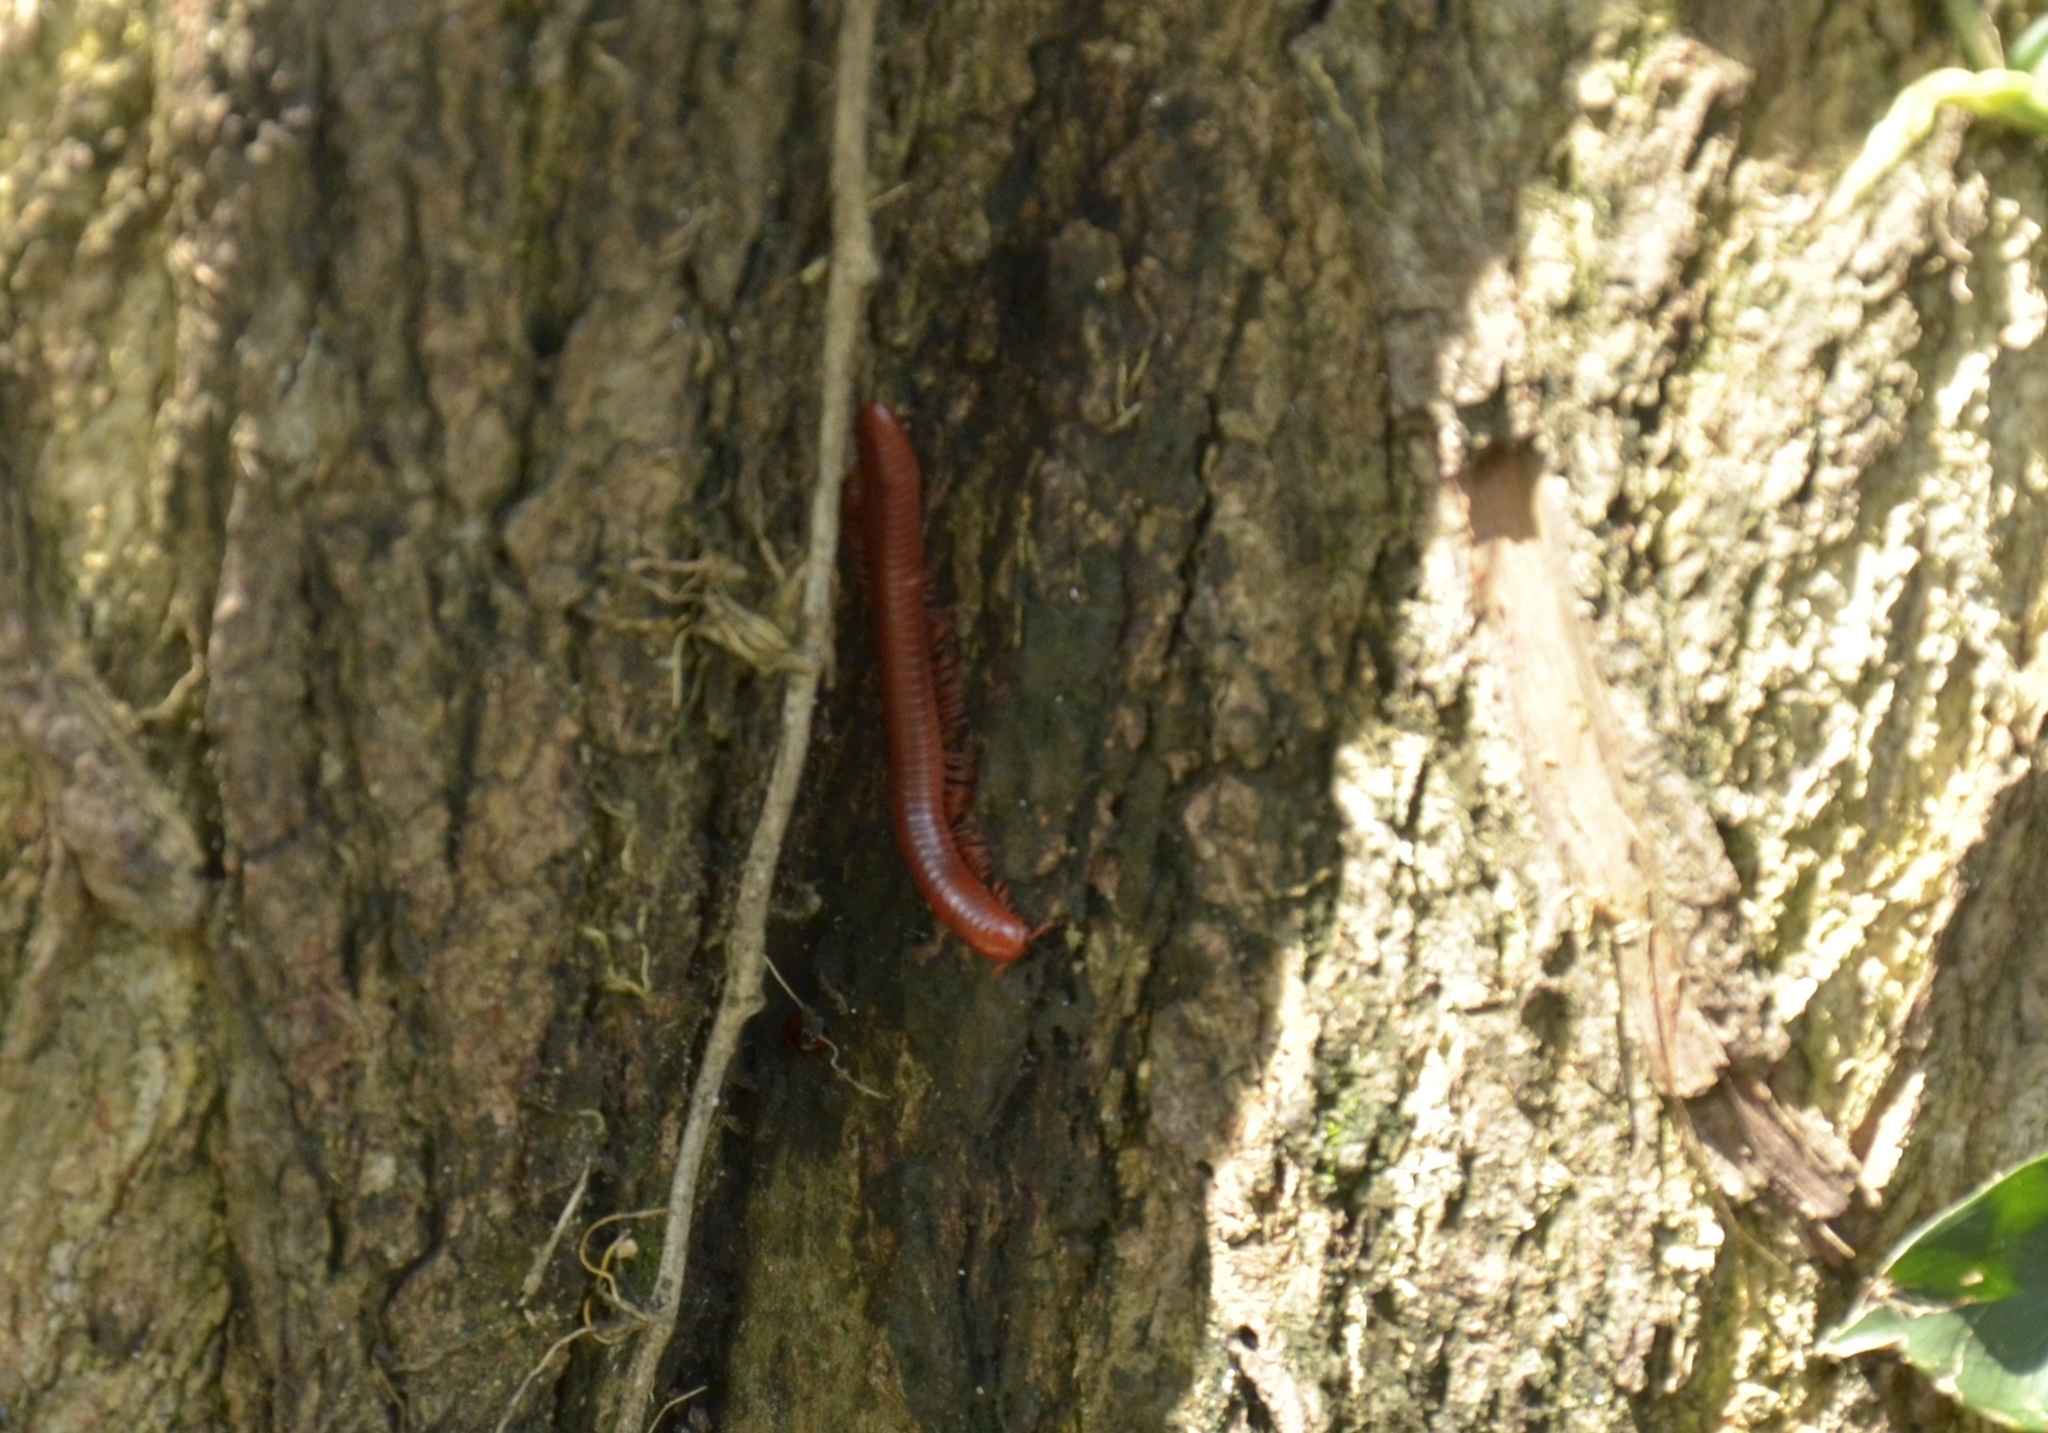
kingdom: Animalia
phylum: Arthropoda
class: Diplopoda
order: Spirobolida
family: Pachybolidae
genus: Trigoniulus
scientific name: Trigoniulus corallinus
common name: Millipede
